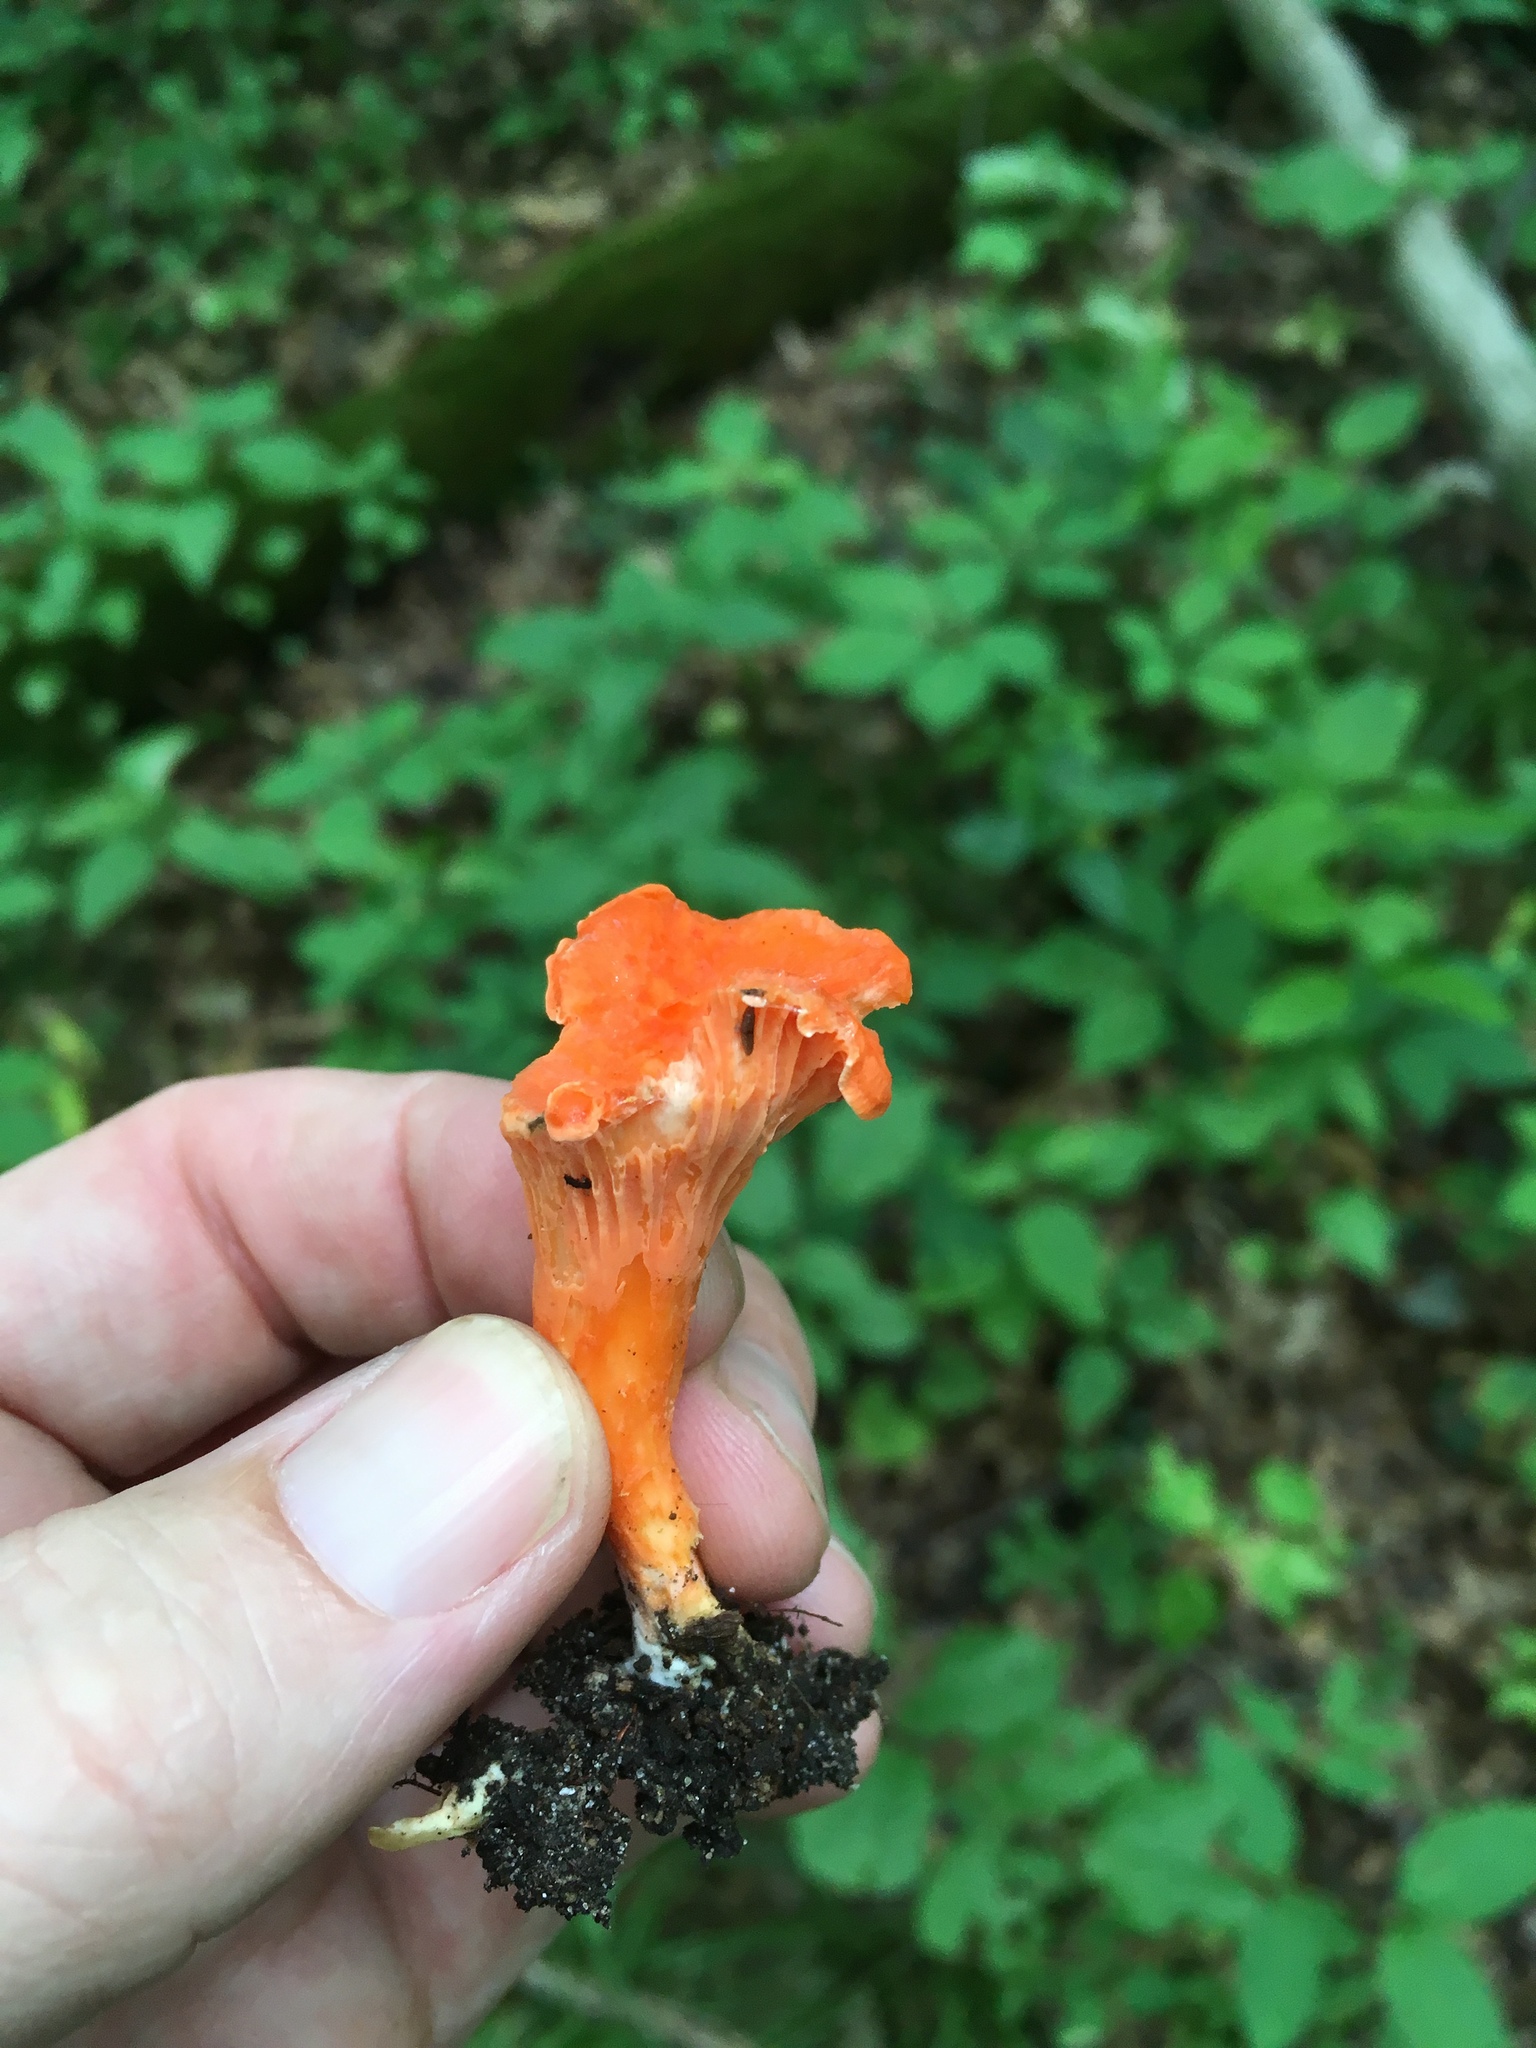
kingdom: Fungi
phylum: Basidiomycota
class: Agaricomycetes
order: Cantharellales
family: Hydnaceae
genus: Cantharellus
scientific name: Cantharellus cinnabarinus
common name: Cinnabar chanterelle
